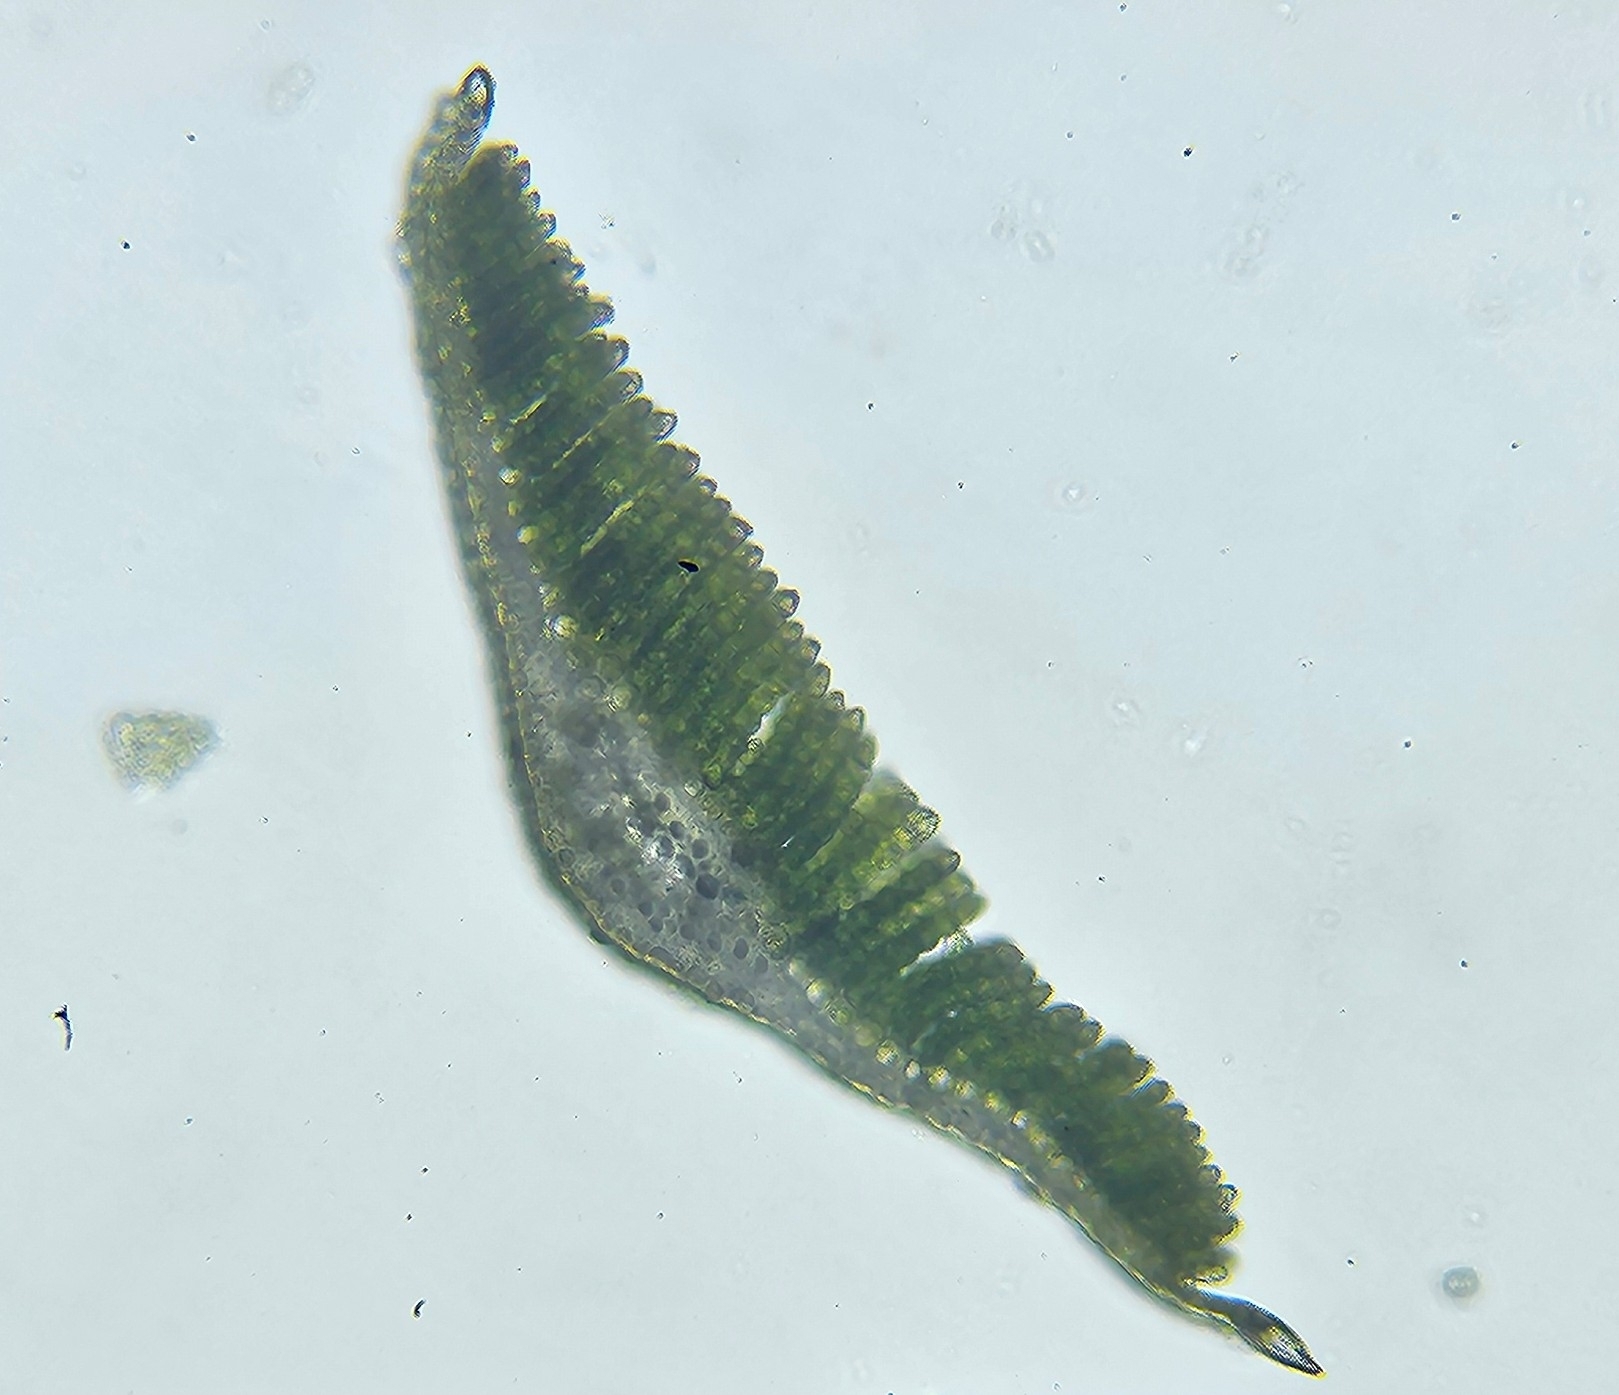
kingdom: Plantae
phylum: Bryophyta
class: Polytrichopsida
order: Polytrichales
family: Polytrichaceae
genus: Polytrichum
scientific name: Polytrichum formosum
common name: Bank haircap moss
